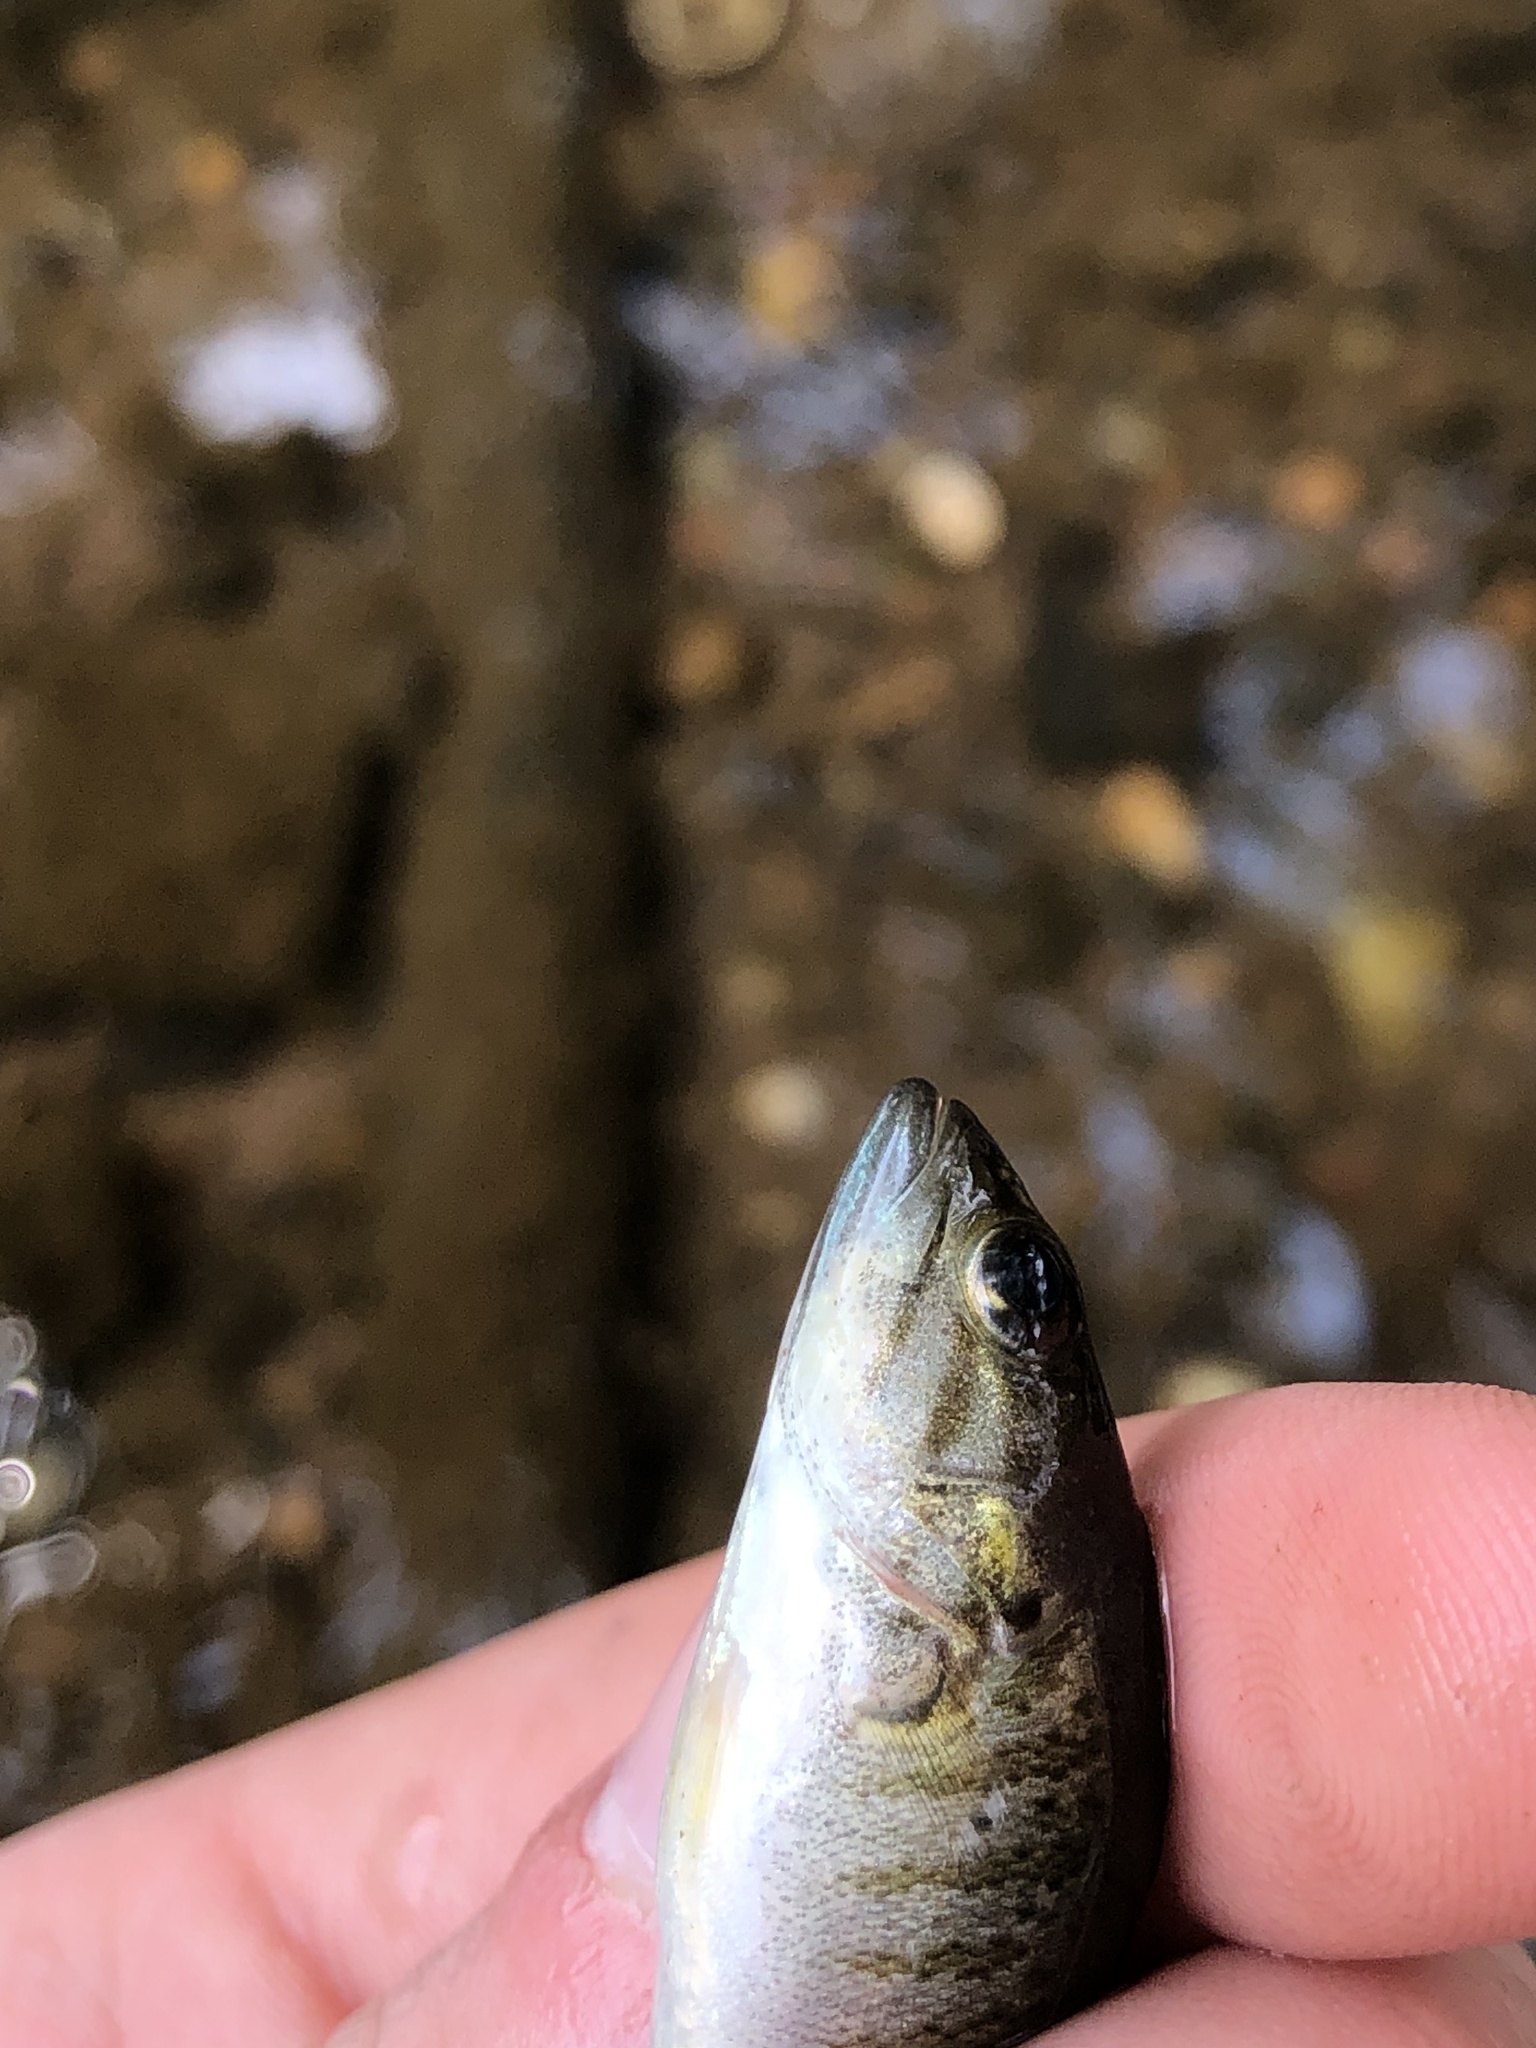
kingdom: Animalia
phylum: Chordata
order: Perciformes
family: Centrarchidae
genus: Micropterus
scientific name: Micropterus dolomieu
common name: Smallmouth bass
